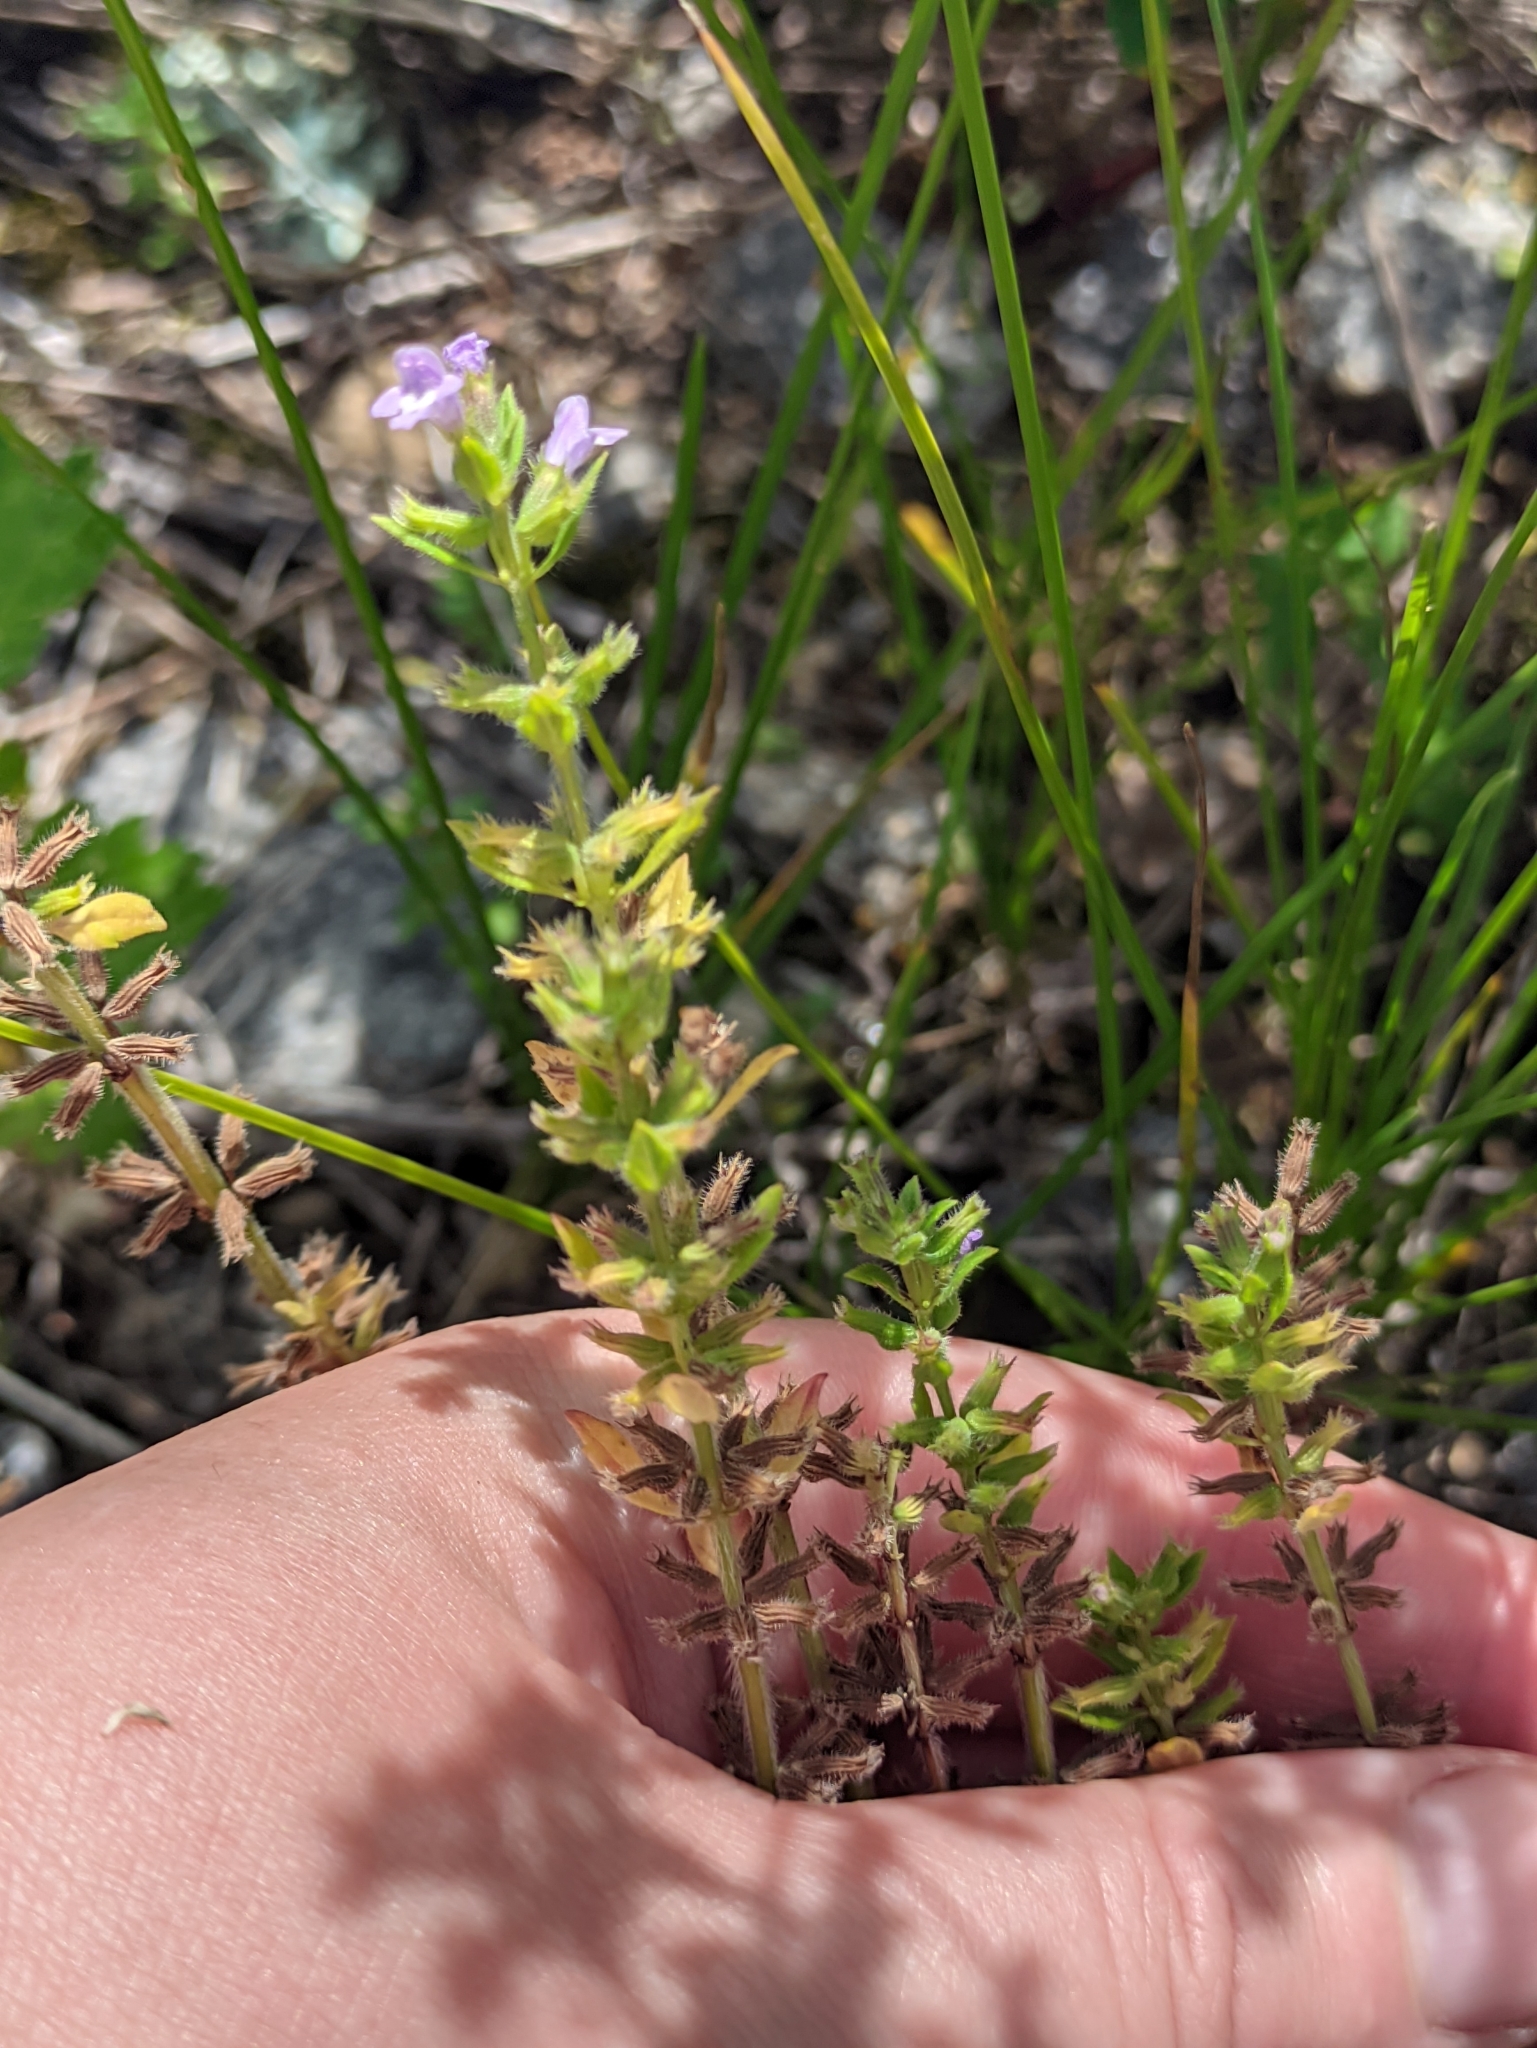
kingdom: Plantae
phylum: Tracheophyta
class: Magnoliopsida
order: Lamiales
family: Lamiaceae
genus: Clinopodium
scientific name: Clinopodium acinos
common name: Basil thyme
